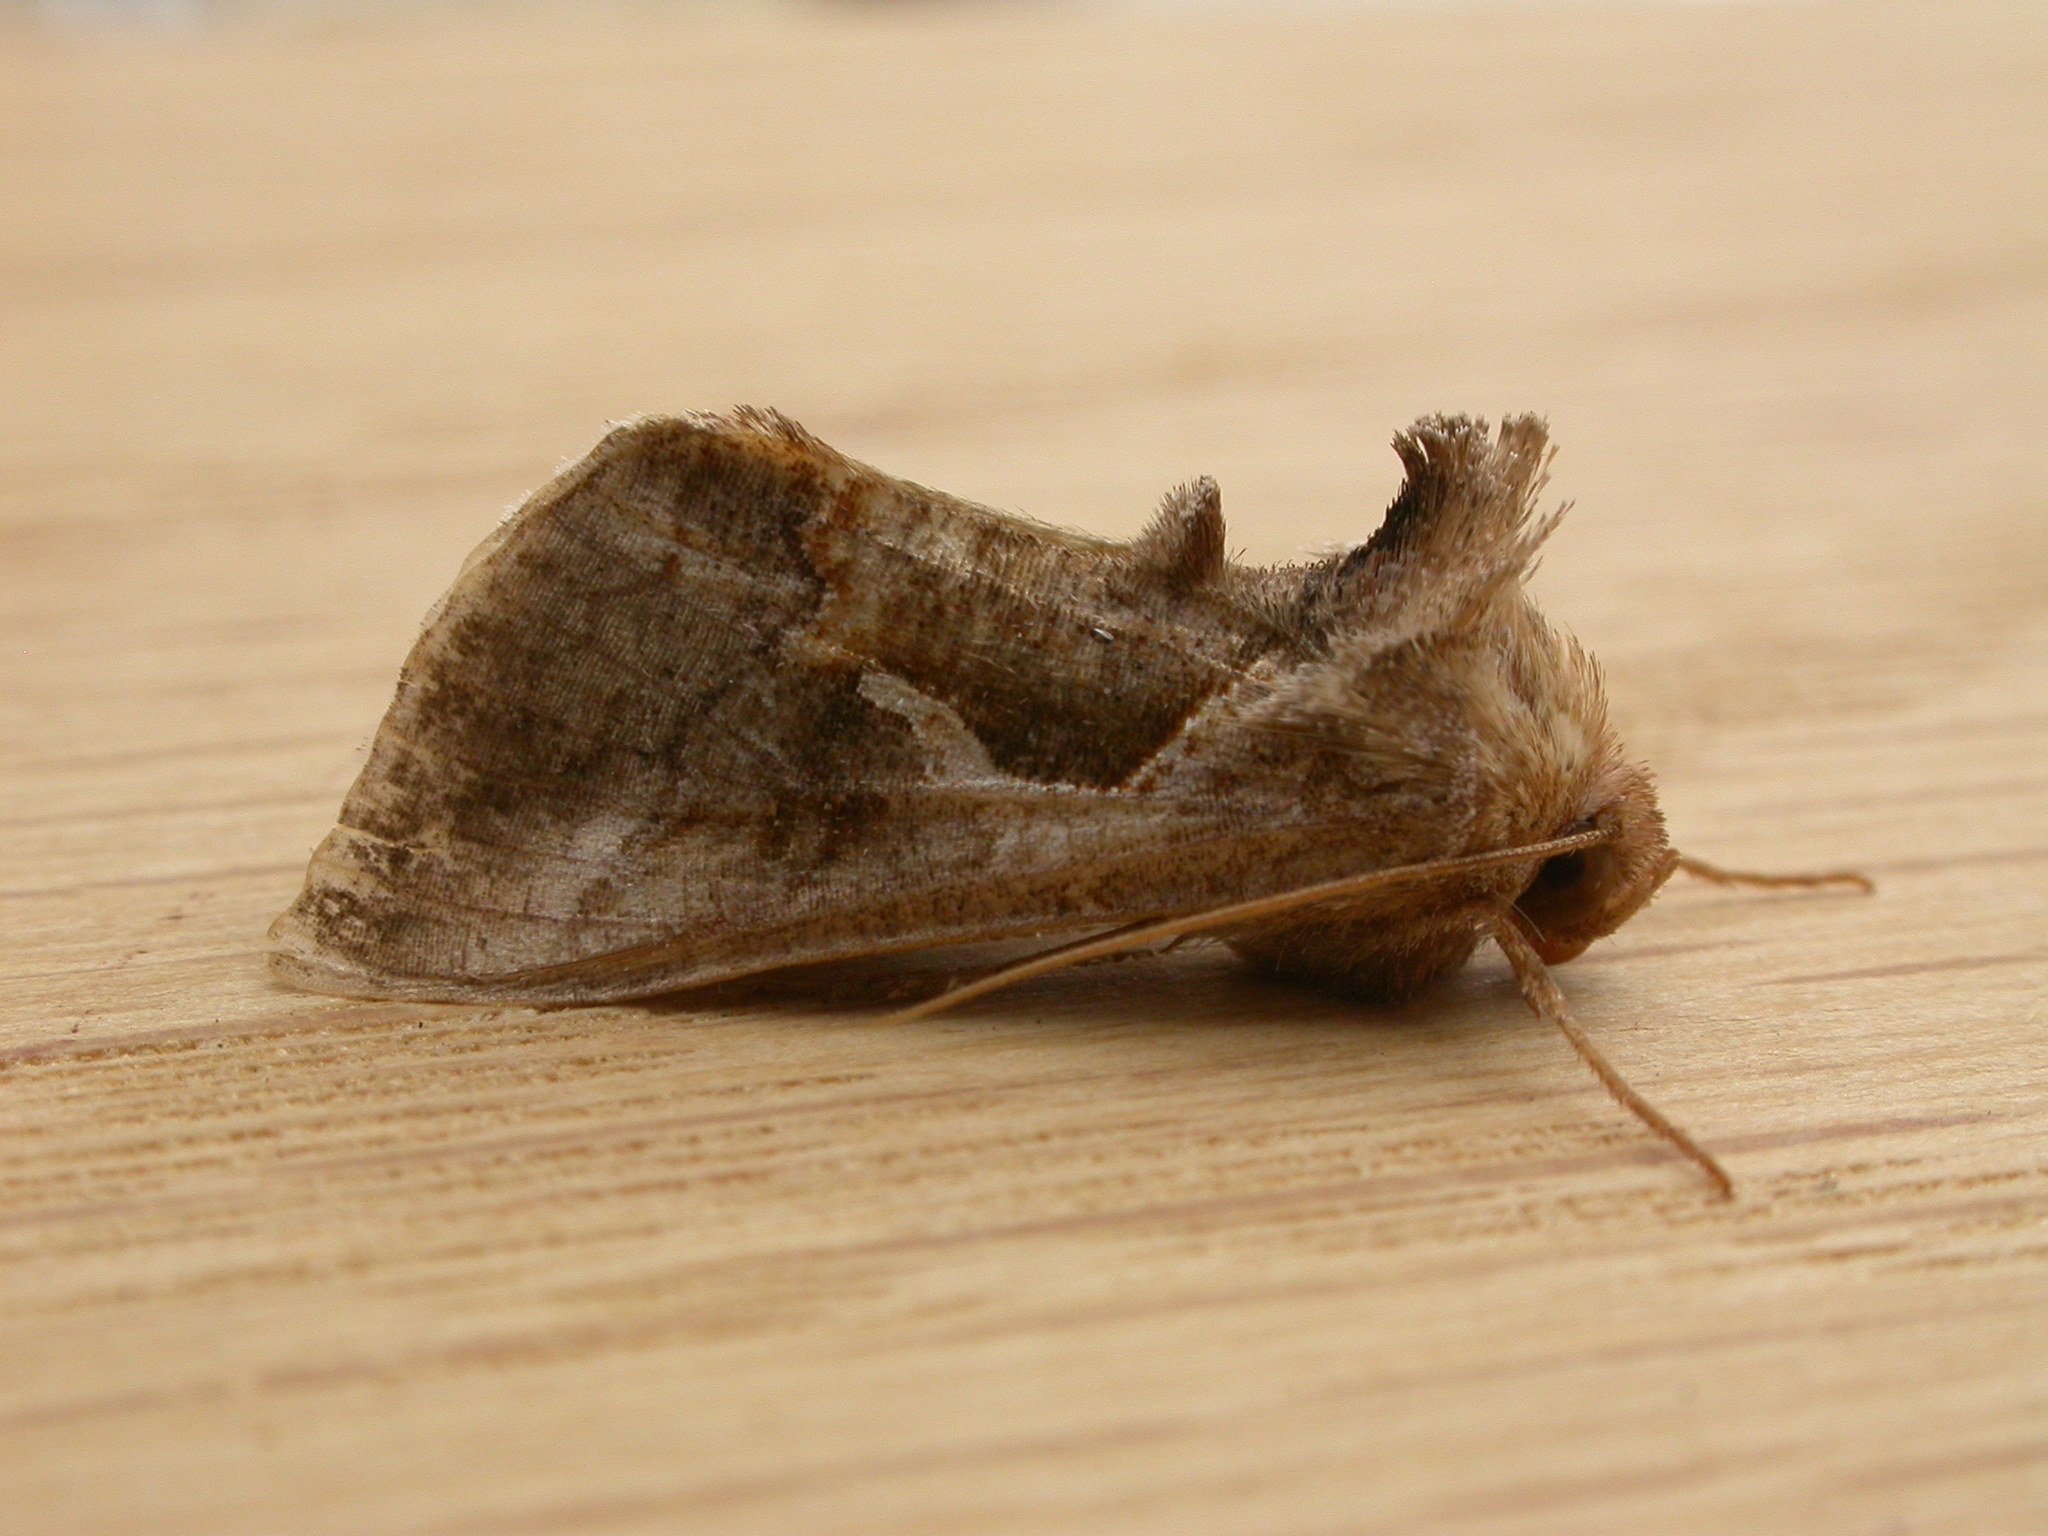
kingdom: Animalia
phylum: Arthropoda
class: Insecta
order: Lepidoptera
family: Noctuidae
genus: Chrysodeixis
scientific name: Chrysodeixis subsidens
